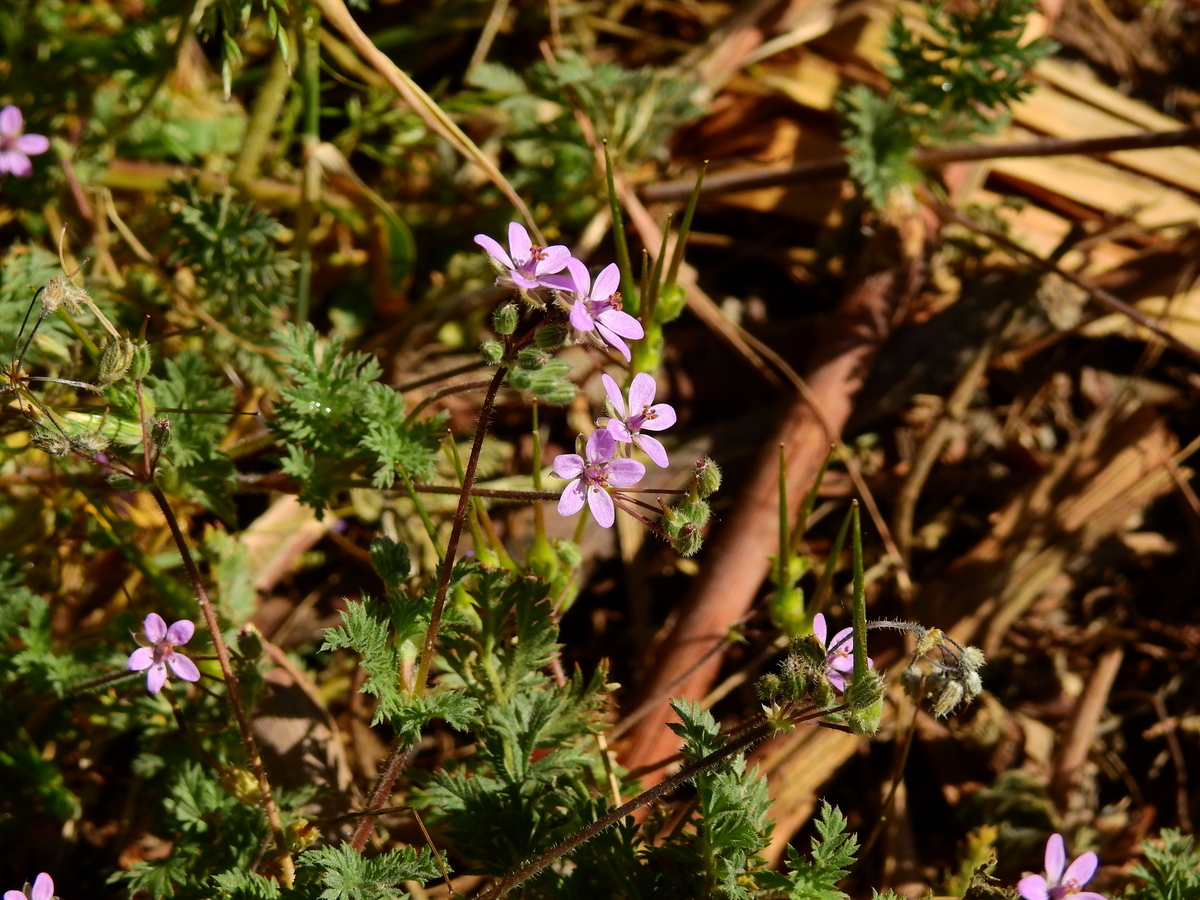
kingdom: Plantae
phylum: Tracheophyta
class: Magnoliopsida
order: Geraniales
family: Geraniaceae
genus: Erodium
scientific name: Erodium cicutarium
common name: Common stork's-bill
